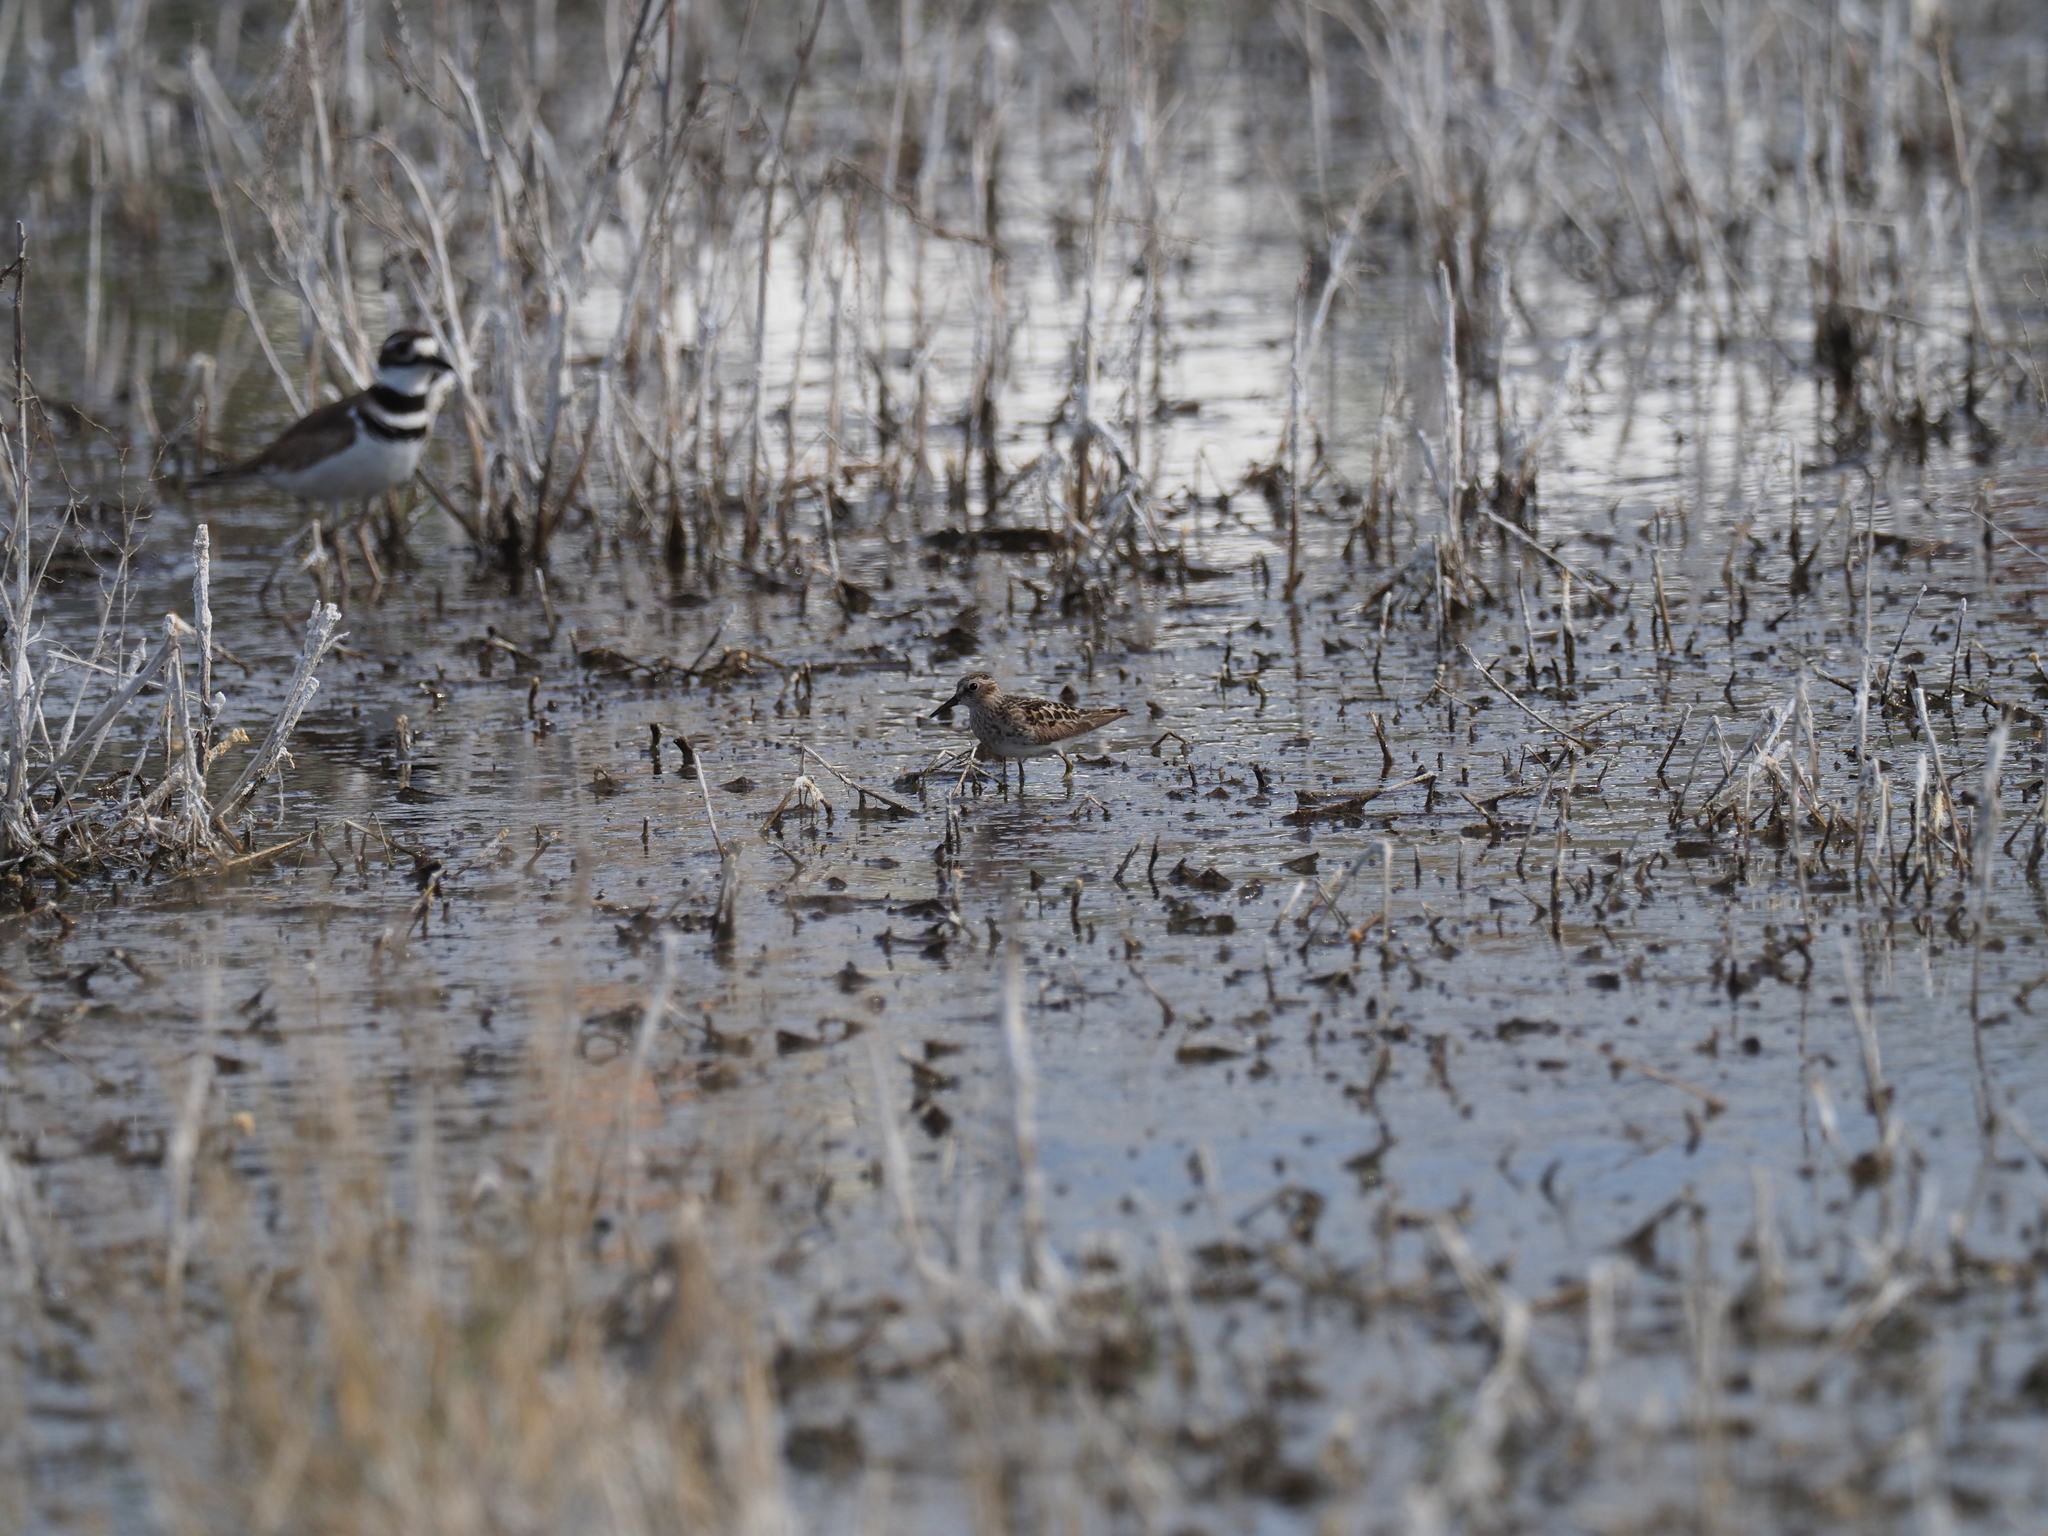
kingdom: Animalia
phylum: Chordata
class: Aves
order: Charadriiformes
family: Scolopacidae
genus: Calidris
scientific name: Calidris minutilla
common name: Least sandpiper
